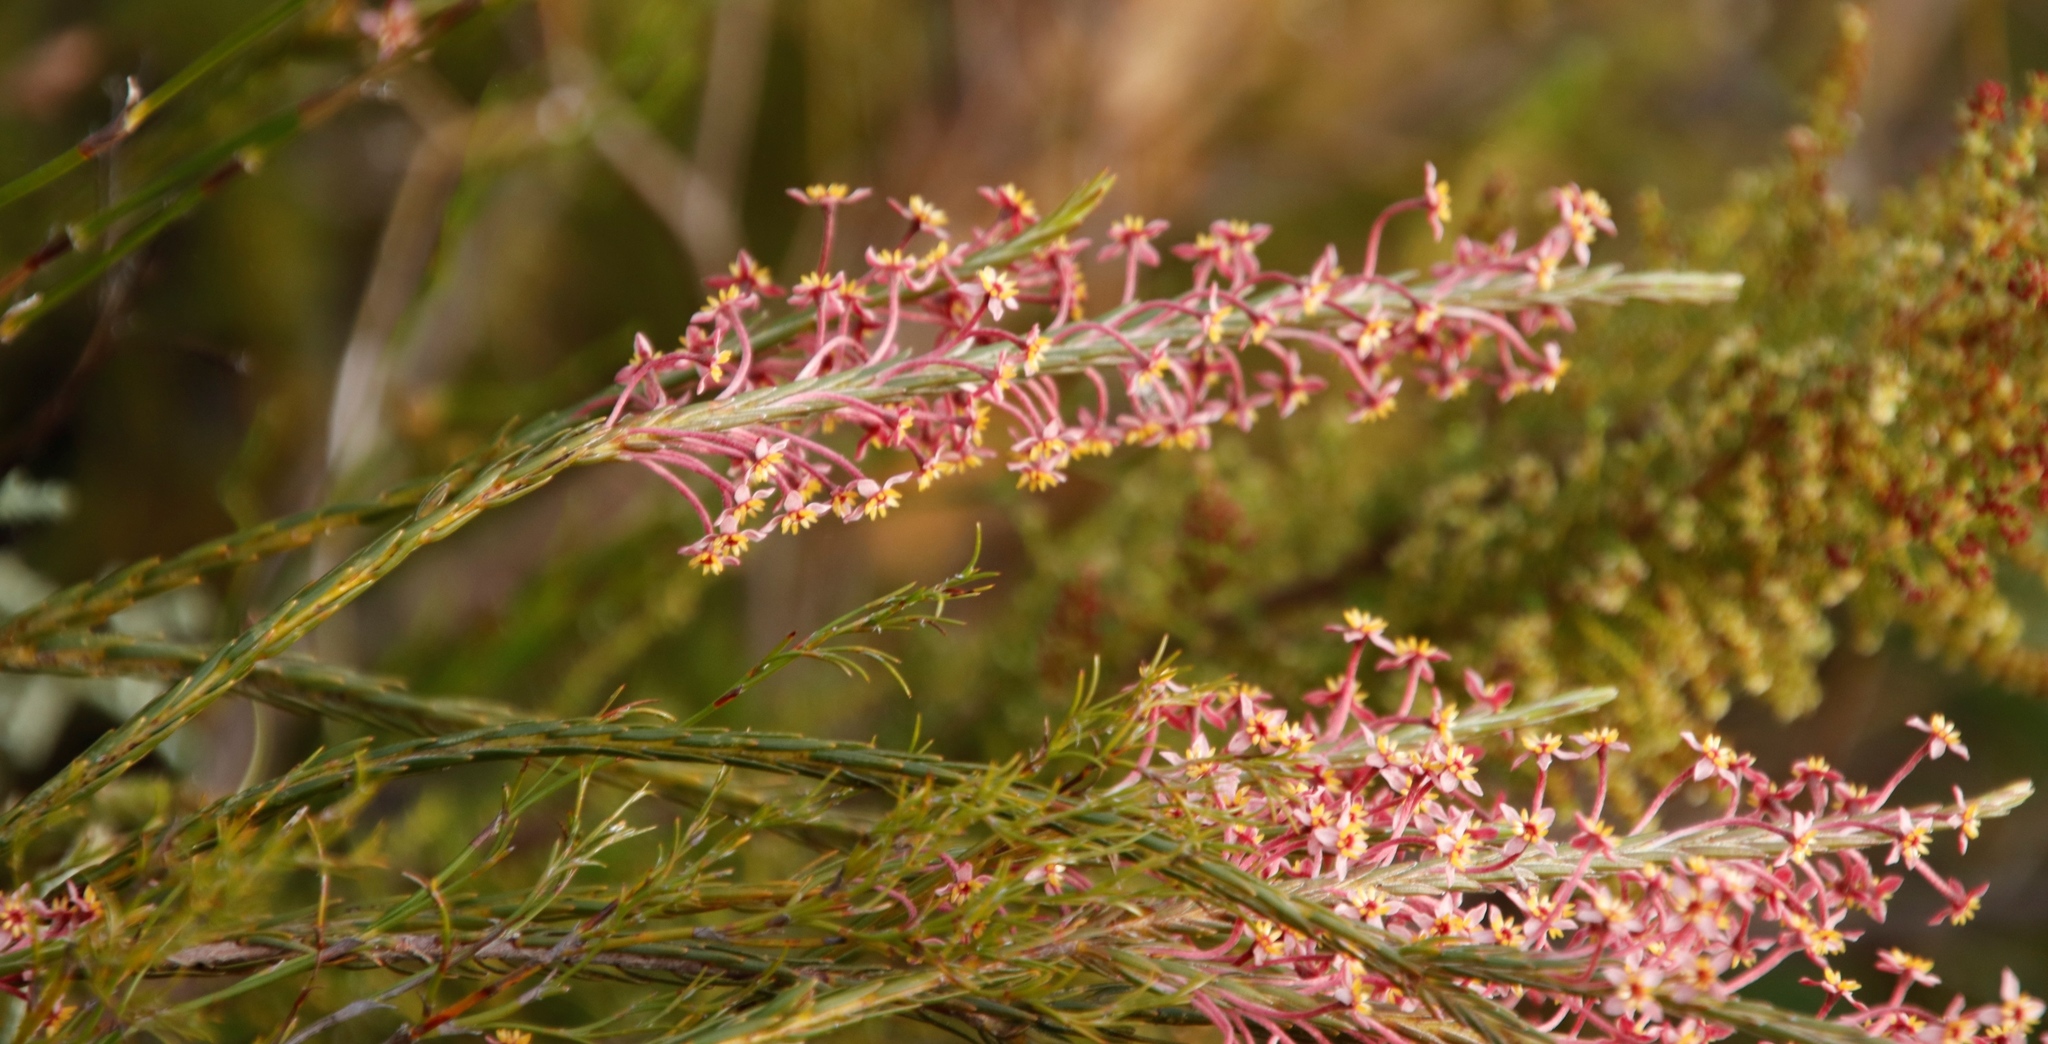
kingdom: Plantae
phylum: Tracheophyta
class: Magnoliopsida
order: Malvales
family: Thymelaeaceae
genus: Struthiola
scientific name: Struthiola macowanii
